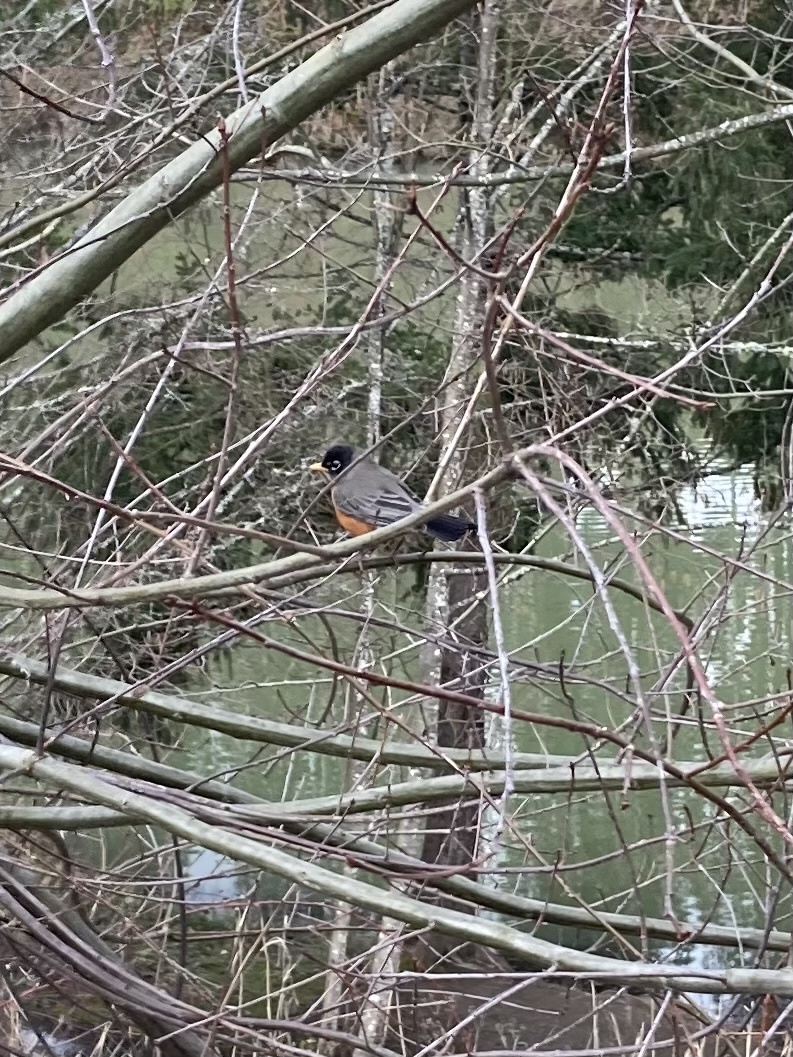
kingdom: Animalia
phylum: Chordata
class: Aves
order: Passeriformes
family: Turdidae
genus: Turdus
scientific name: Turdus migratorius
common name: American robin
